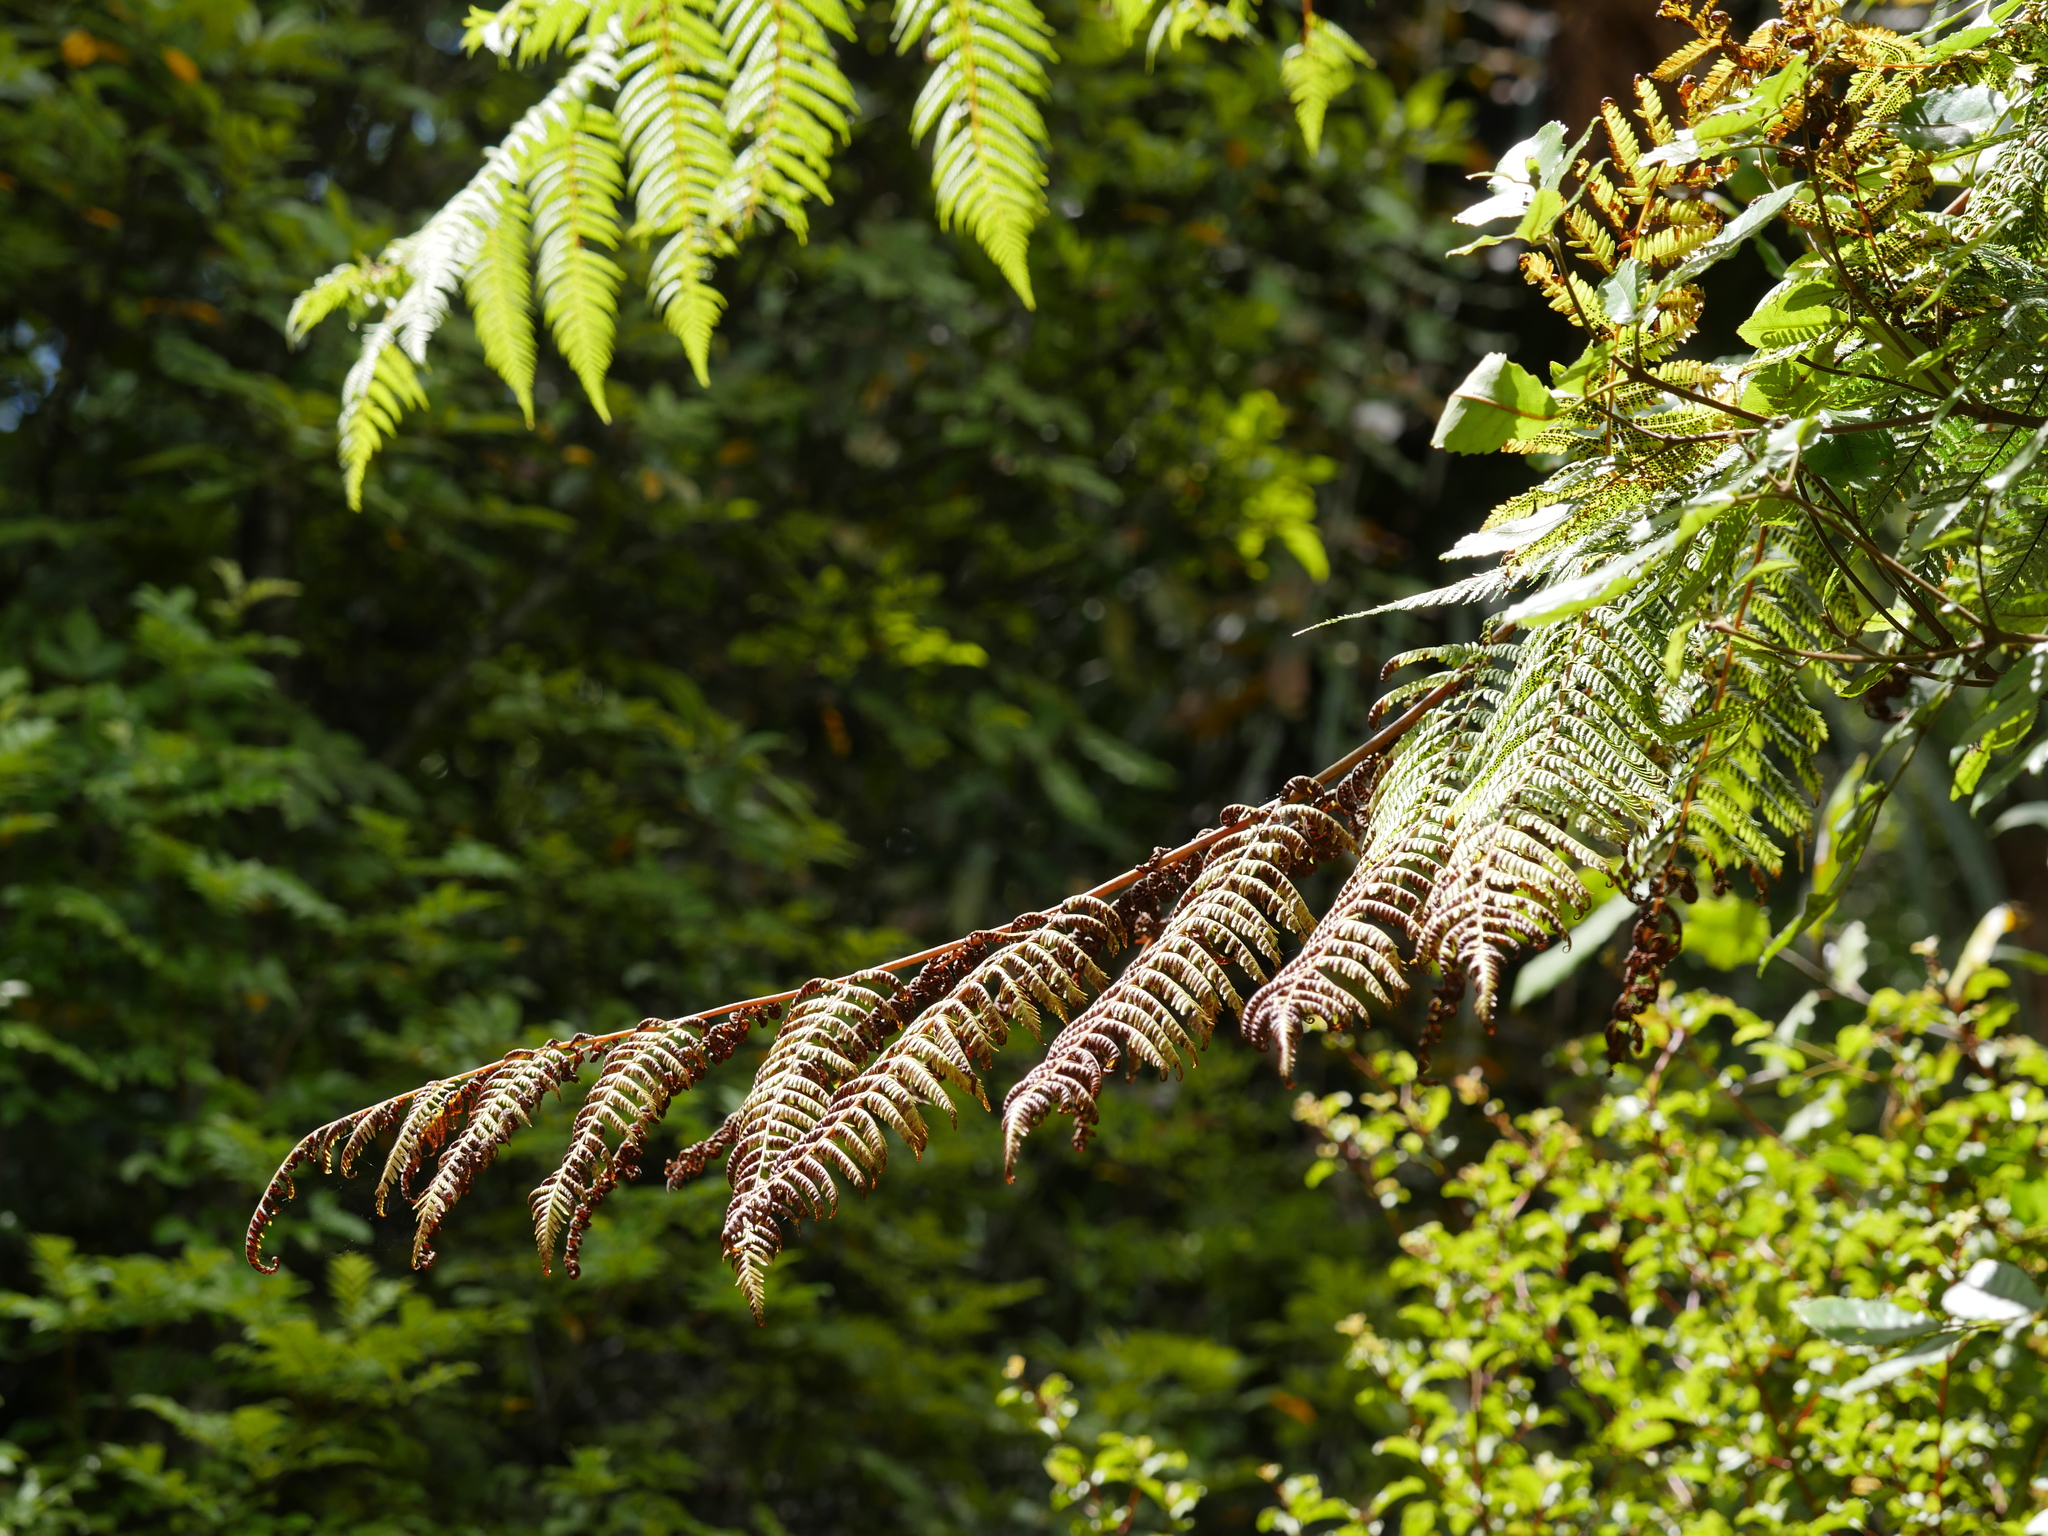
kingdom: Plantae
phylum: Tracheophyta
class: Polypodiopsida
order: Cyatheales
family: Cyatheaceae
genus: Cyathea
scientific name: Cyathea cunninghamii
